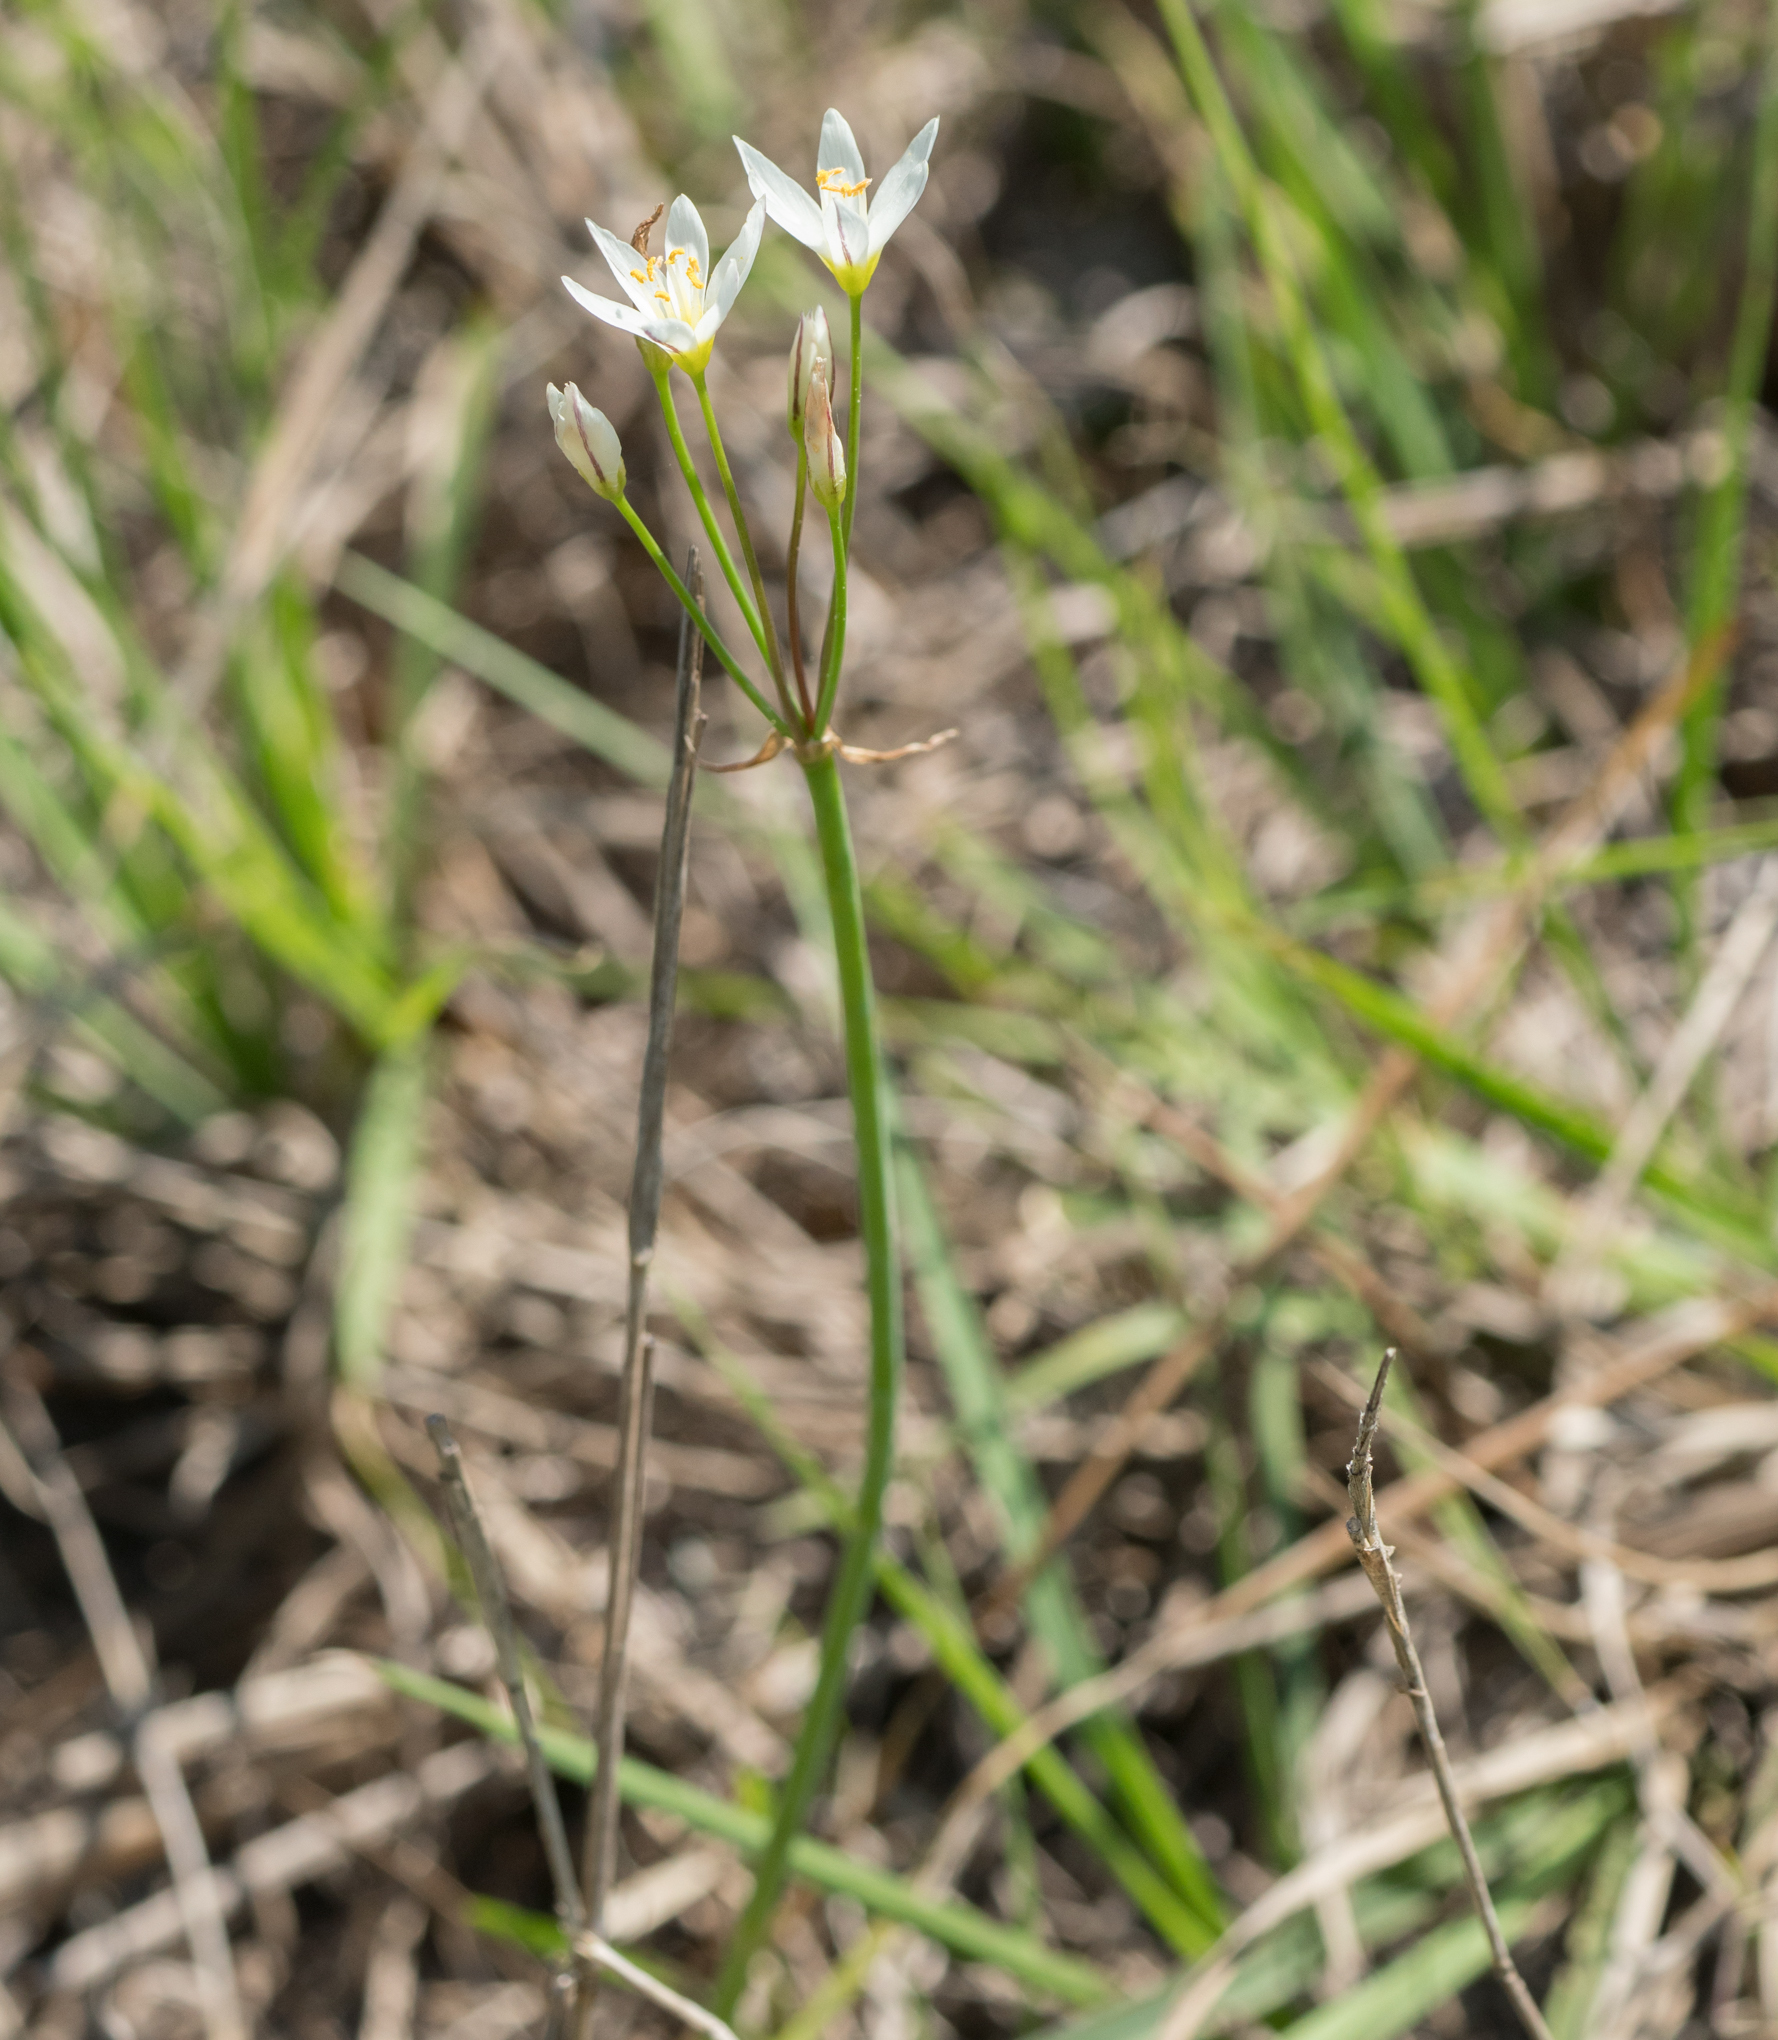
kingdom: Plantae
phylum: Tracheophyta
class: Liliopsida
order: Asparagales
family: Amaryllidaceae
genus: Nothoscordum
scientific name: Nothoscordum bivalve
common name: Crow-poison
